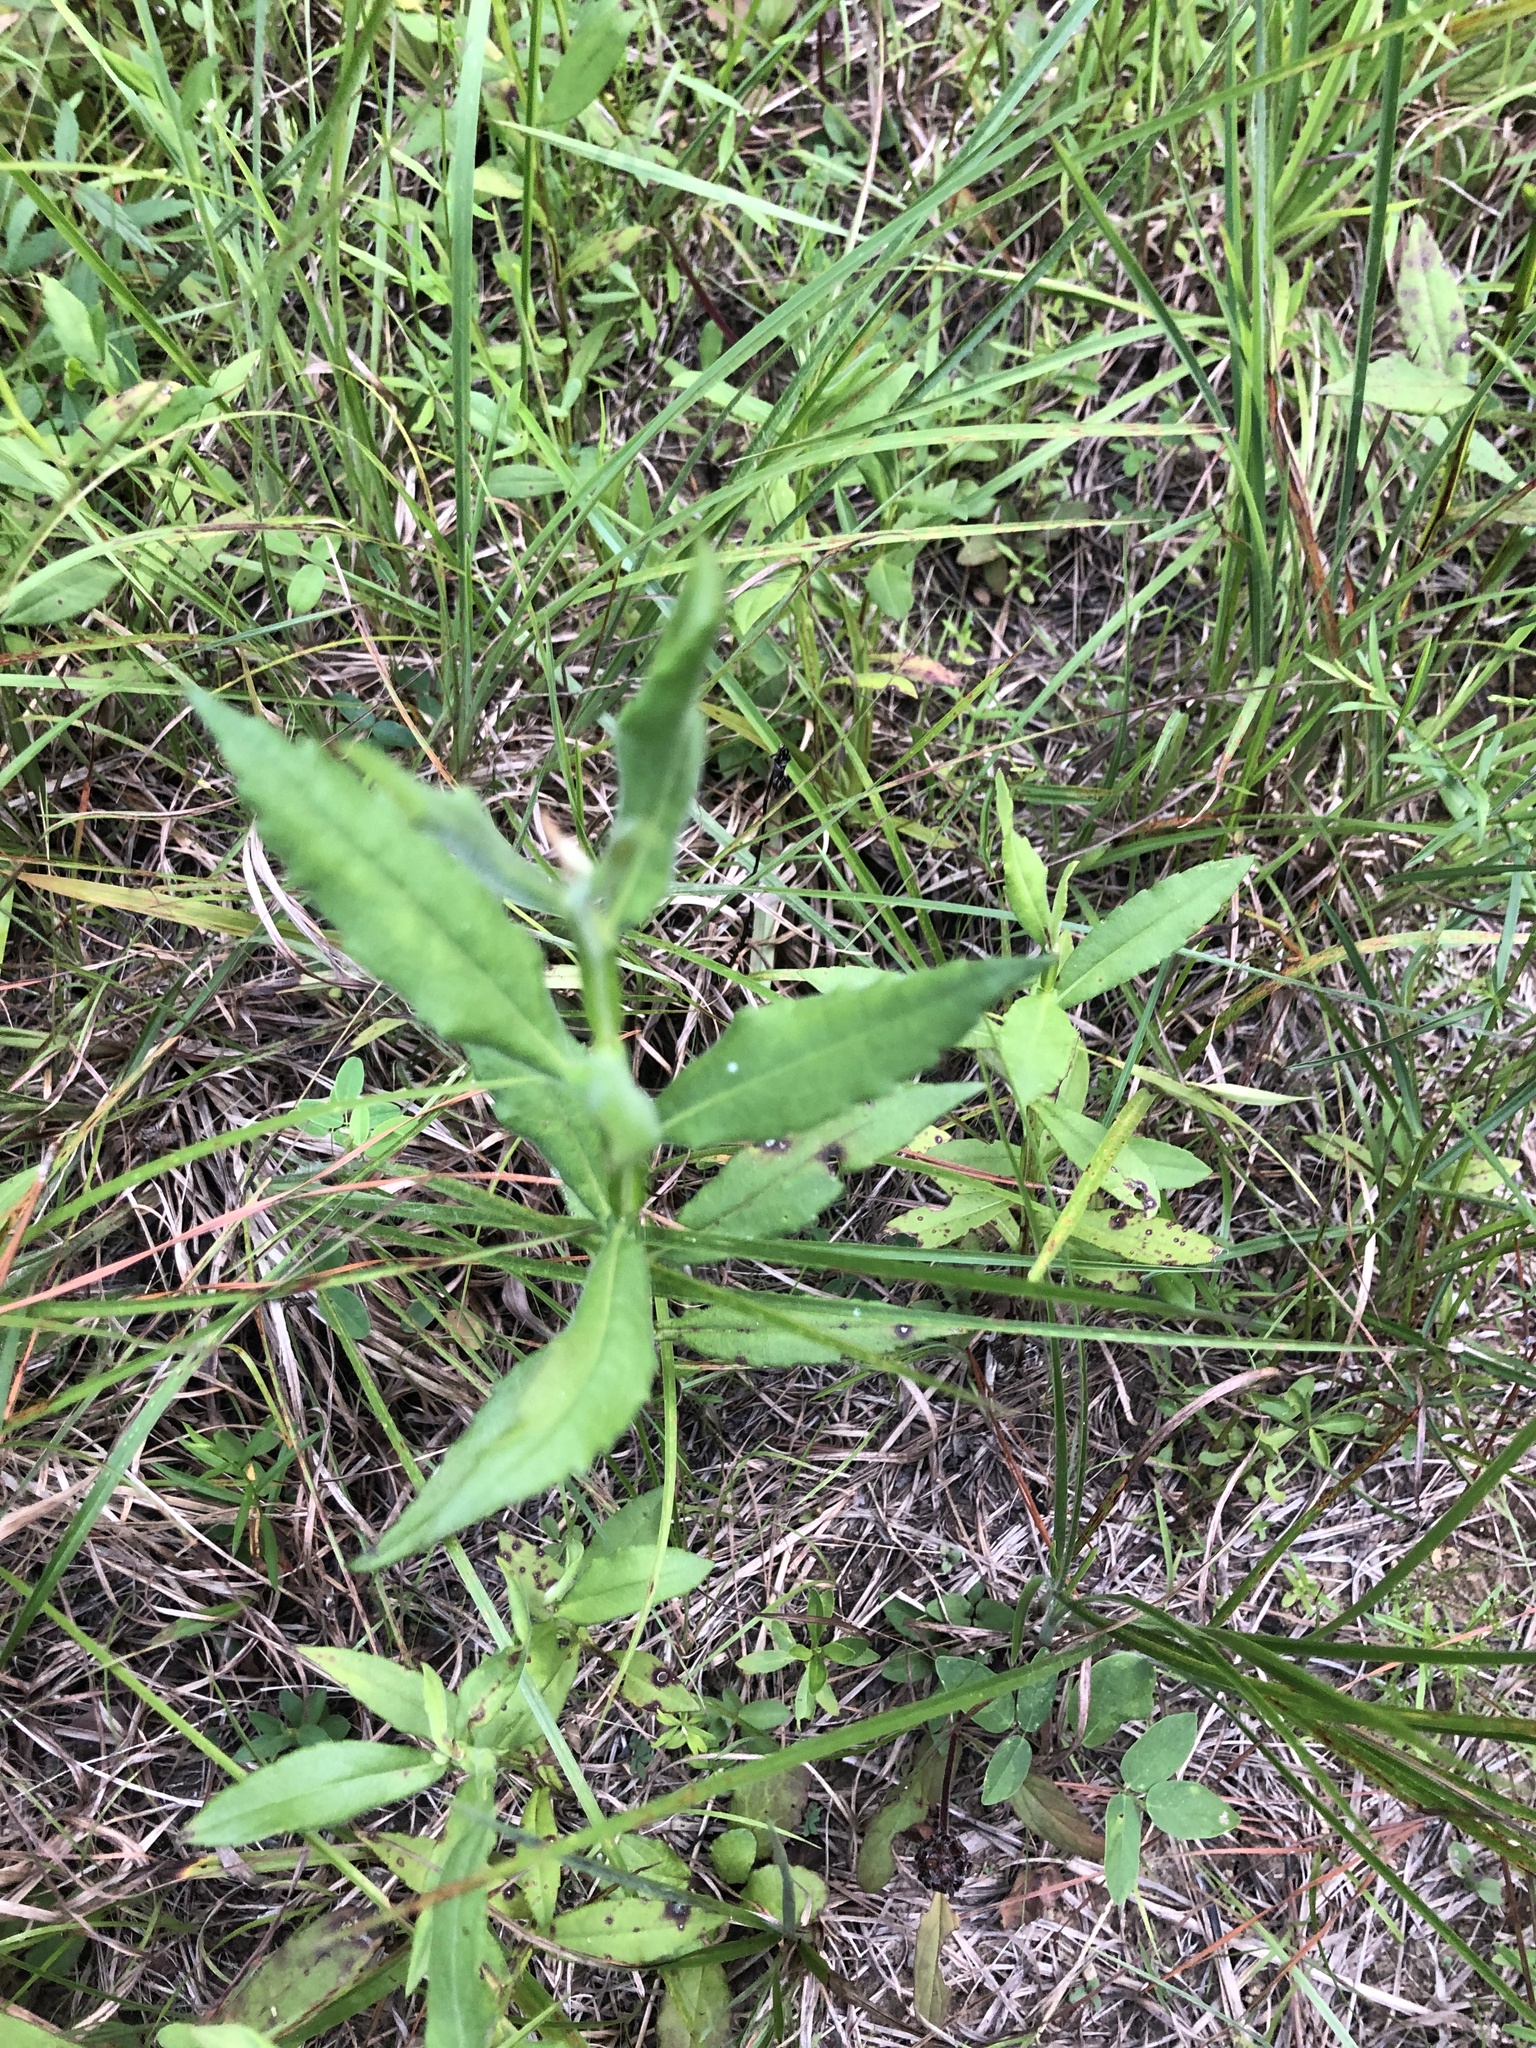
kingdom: Plantae
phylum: Tracheophyta
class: Magnoliopsida
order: Asterales
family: Asteraceae
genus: Helenium
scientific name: Helenium autumnale
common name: Sneezeweed
